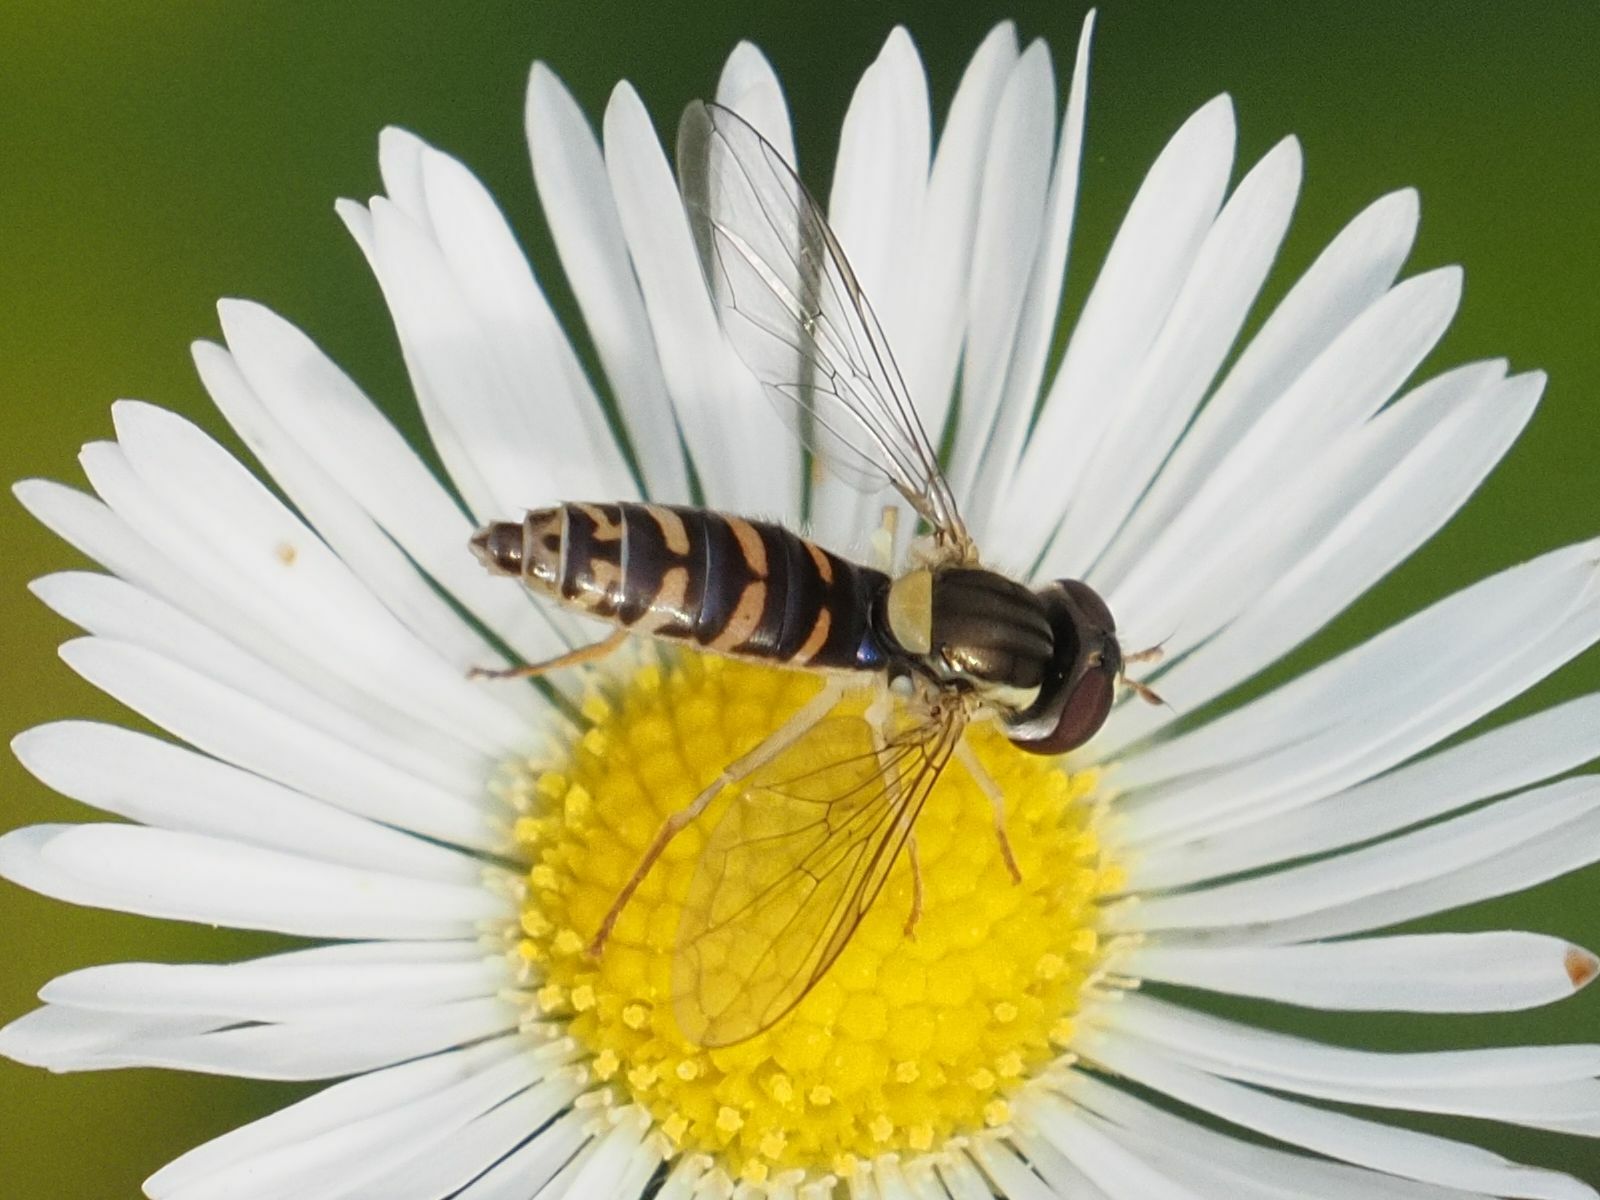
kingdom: Animalia
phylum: Arthropoda
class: Insecta
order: Diptera
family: Syrphidae
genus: Sphaerophoria
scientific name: Sphaerophoria
